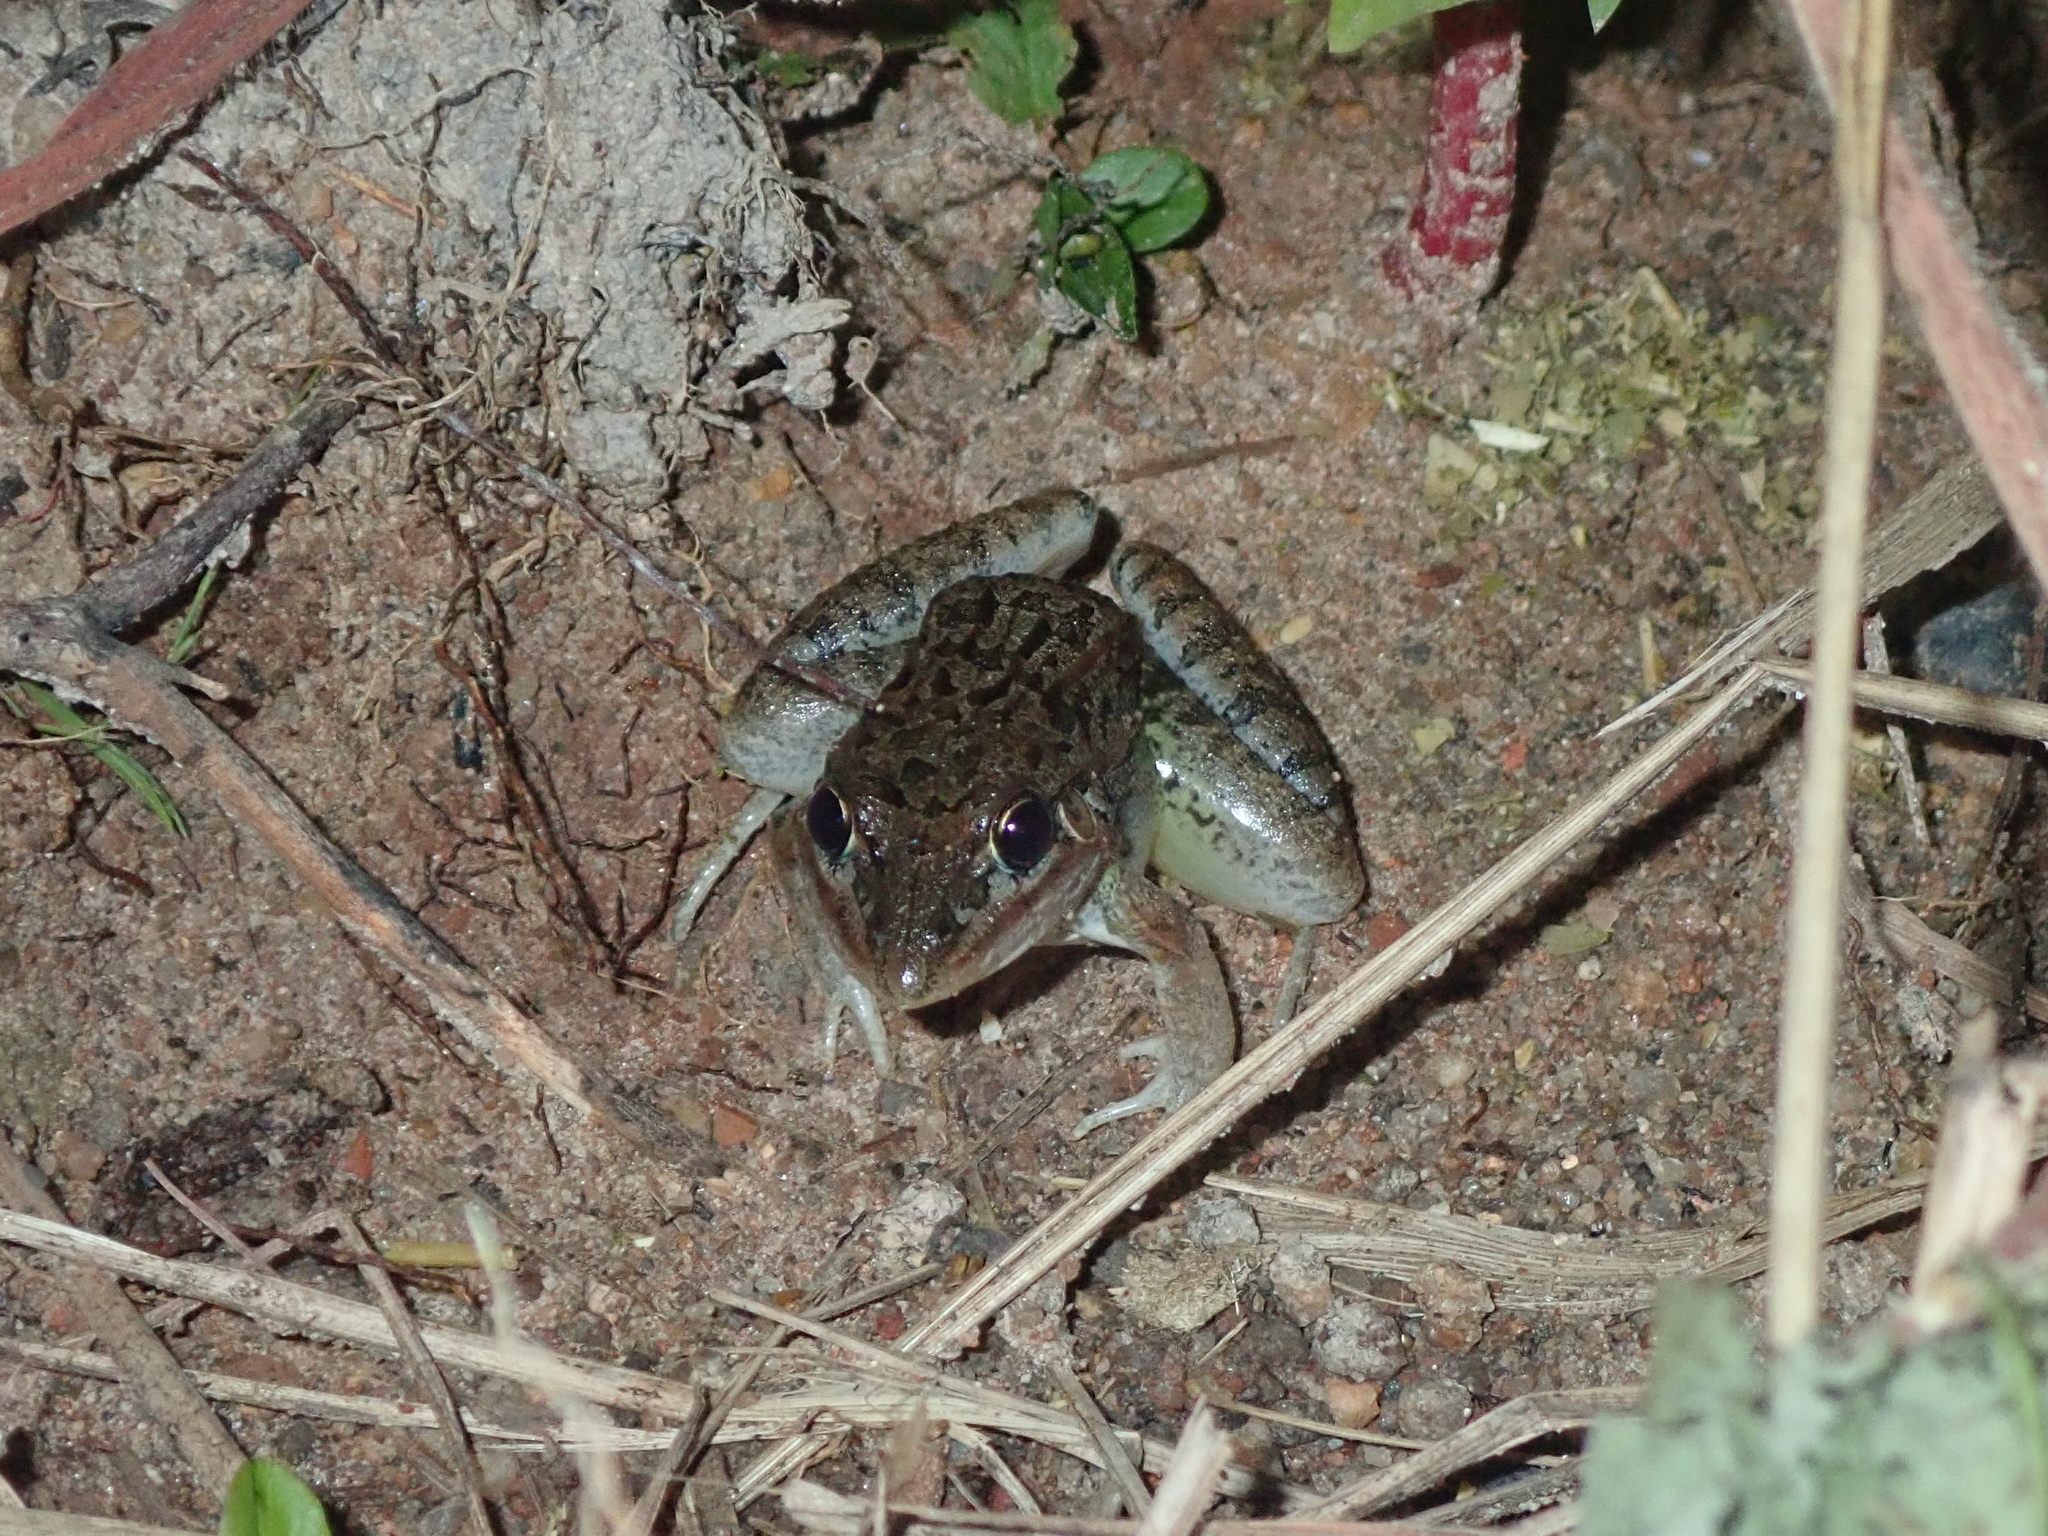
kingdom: Animalia
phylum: Chordata
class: Amphibia
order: Anura
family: Leptodactylidae
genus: Leptodactylus
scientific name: Leptodactylus fuscus
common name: Rufous frog
